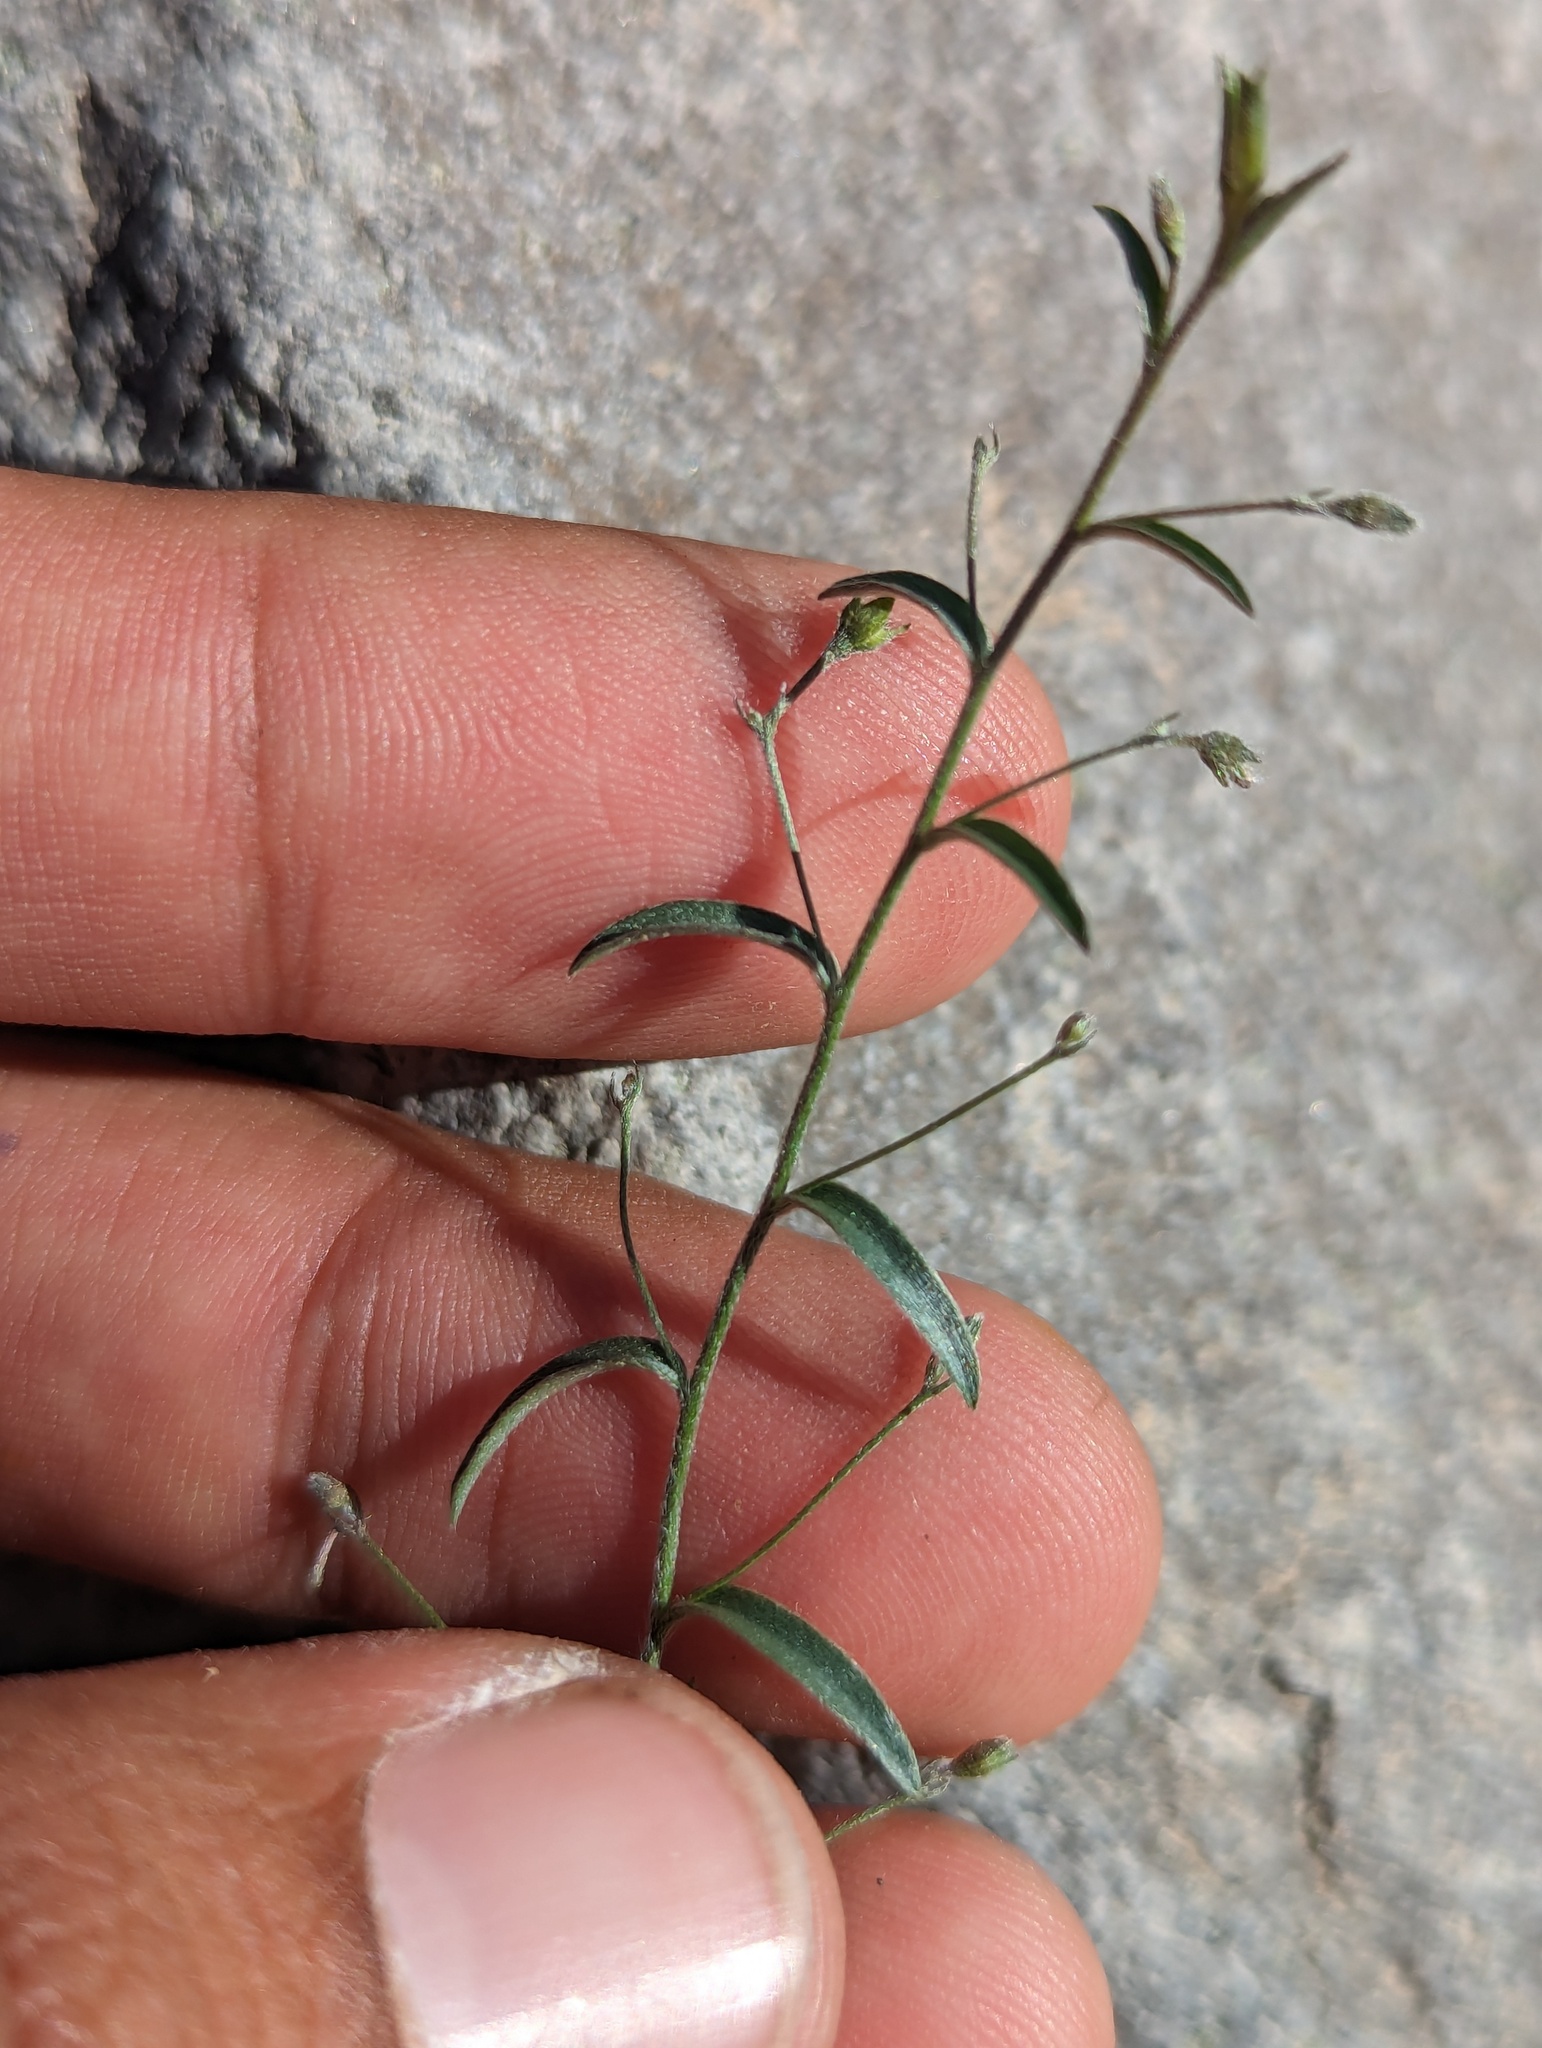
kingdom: Plantae
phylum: Tracheophyta
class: Magnoliopsida
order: Solanales
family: Convolvulaceae
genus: Evolvulus
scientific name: Evolvulus alsinoides
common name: Slender dwarf morning-glory
